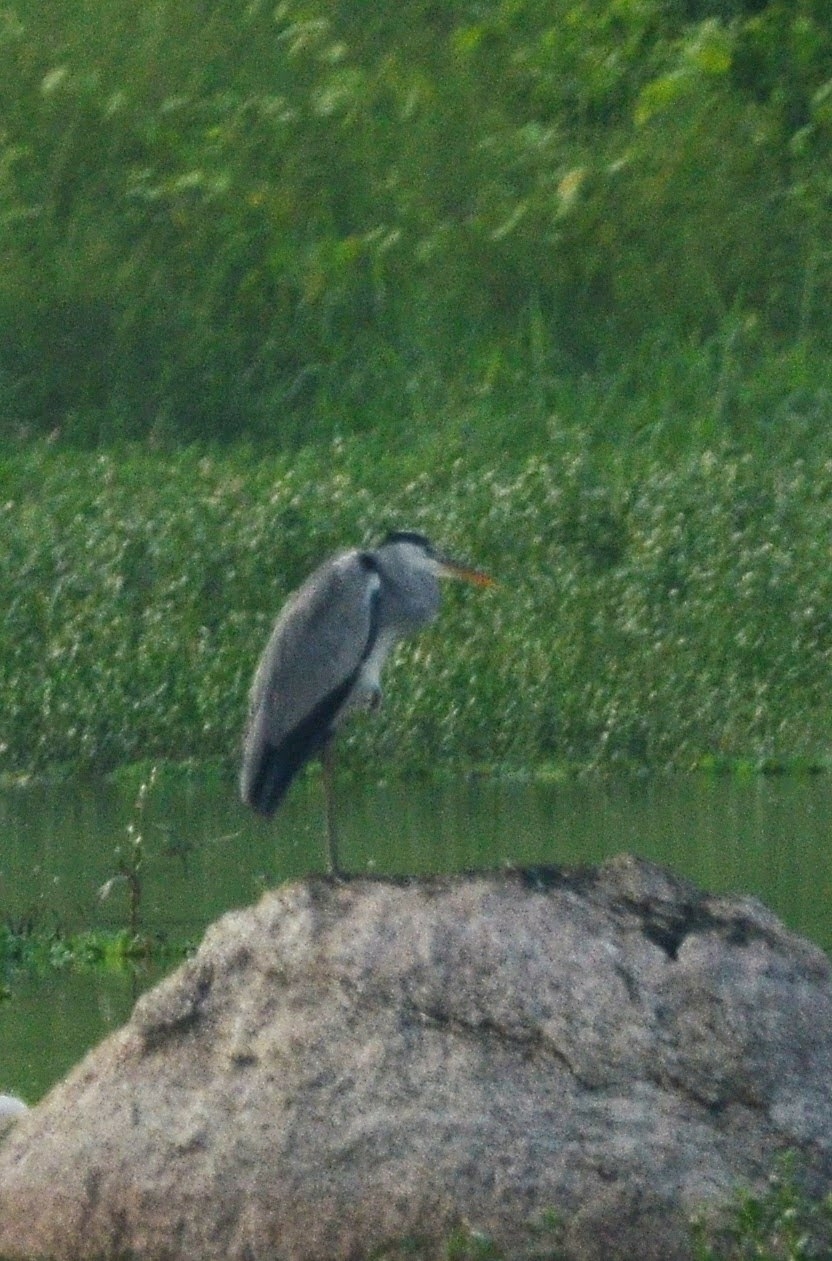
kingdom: Animalia
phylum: Chordata
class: Aves
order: Pelecaniformes
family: Ardeidae
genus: Ardea
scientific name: Ardea cinerea
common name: Grey heron
